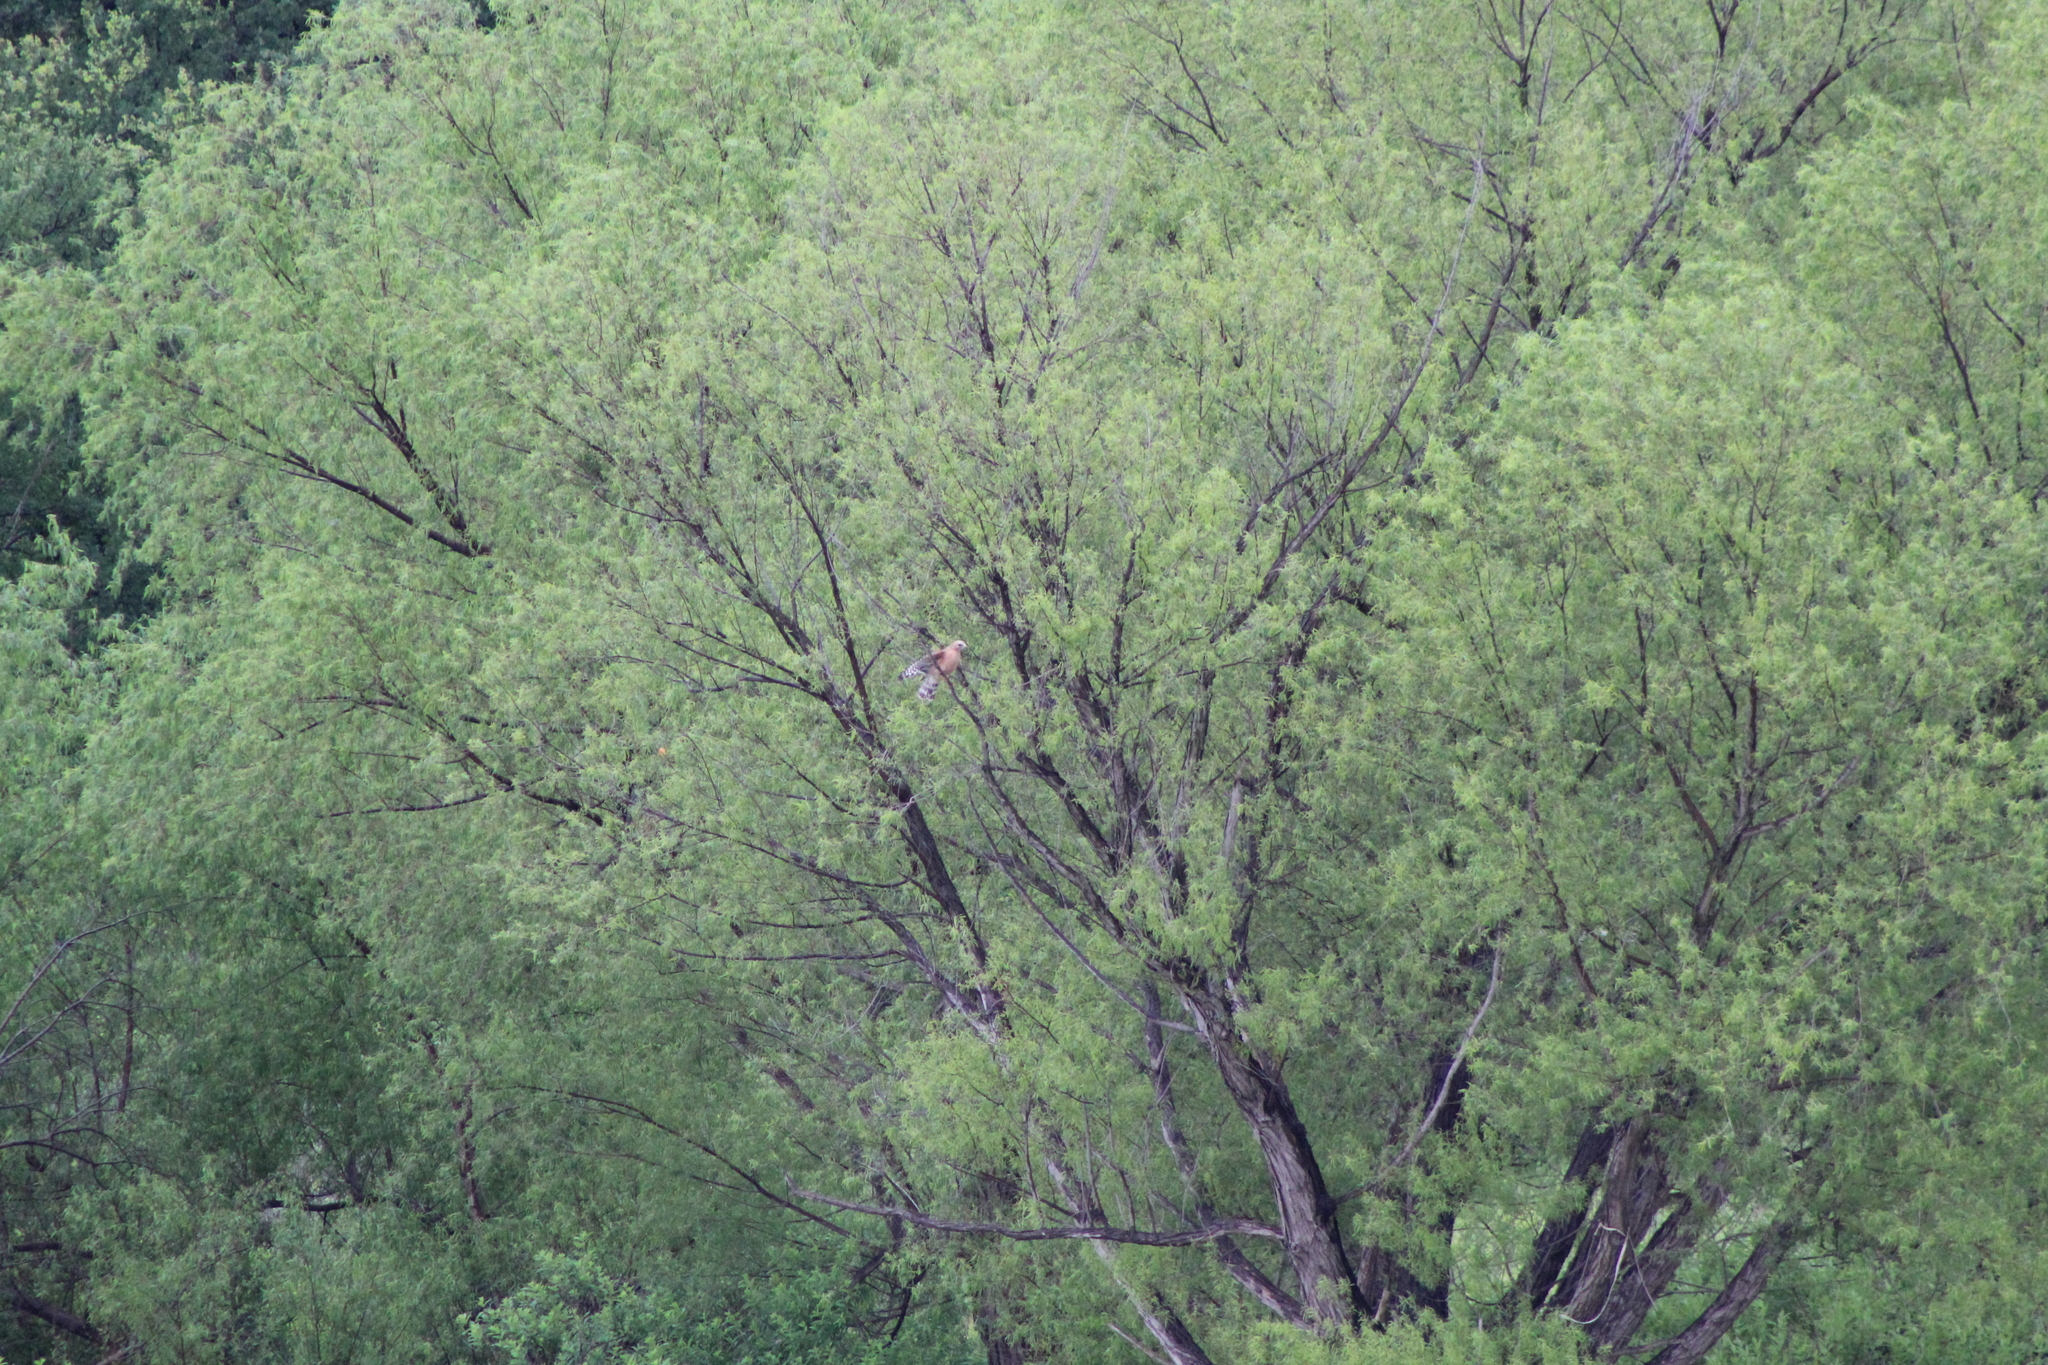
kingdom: Animalia
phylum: Chordata
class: Aves
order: Accipitriformes
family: Accipitridae
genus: Buteo
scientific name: Buteo lineatus
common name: Red-shouldered hawk
